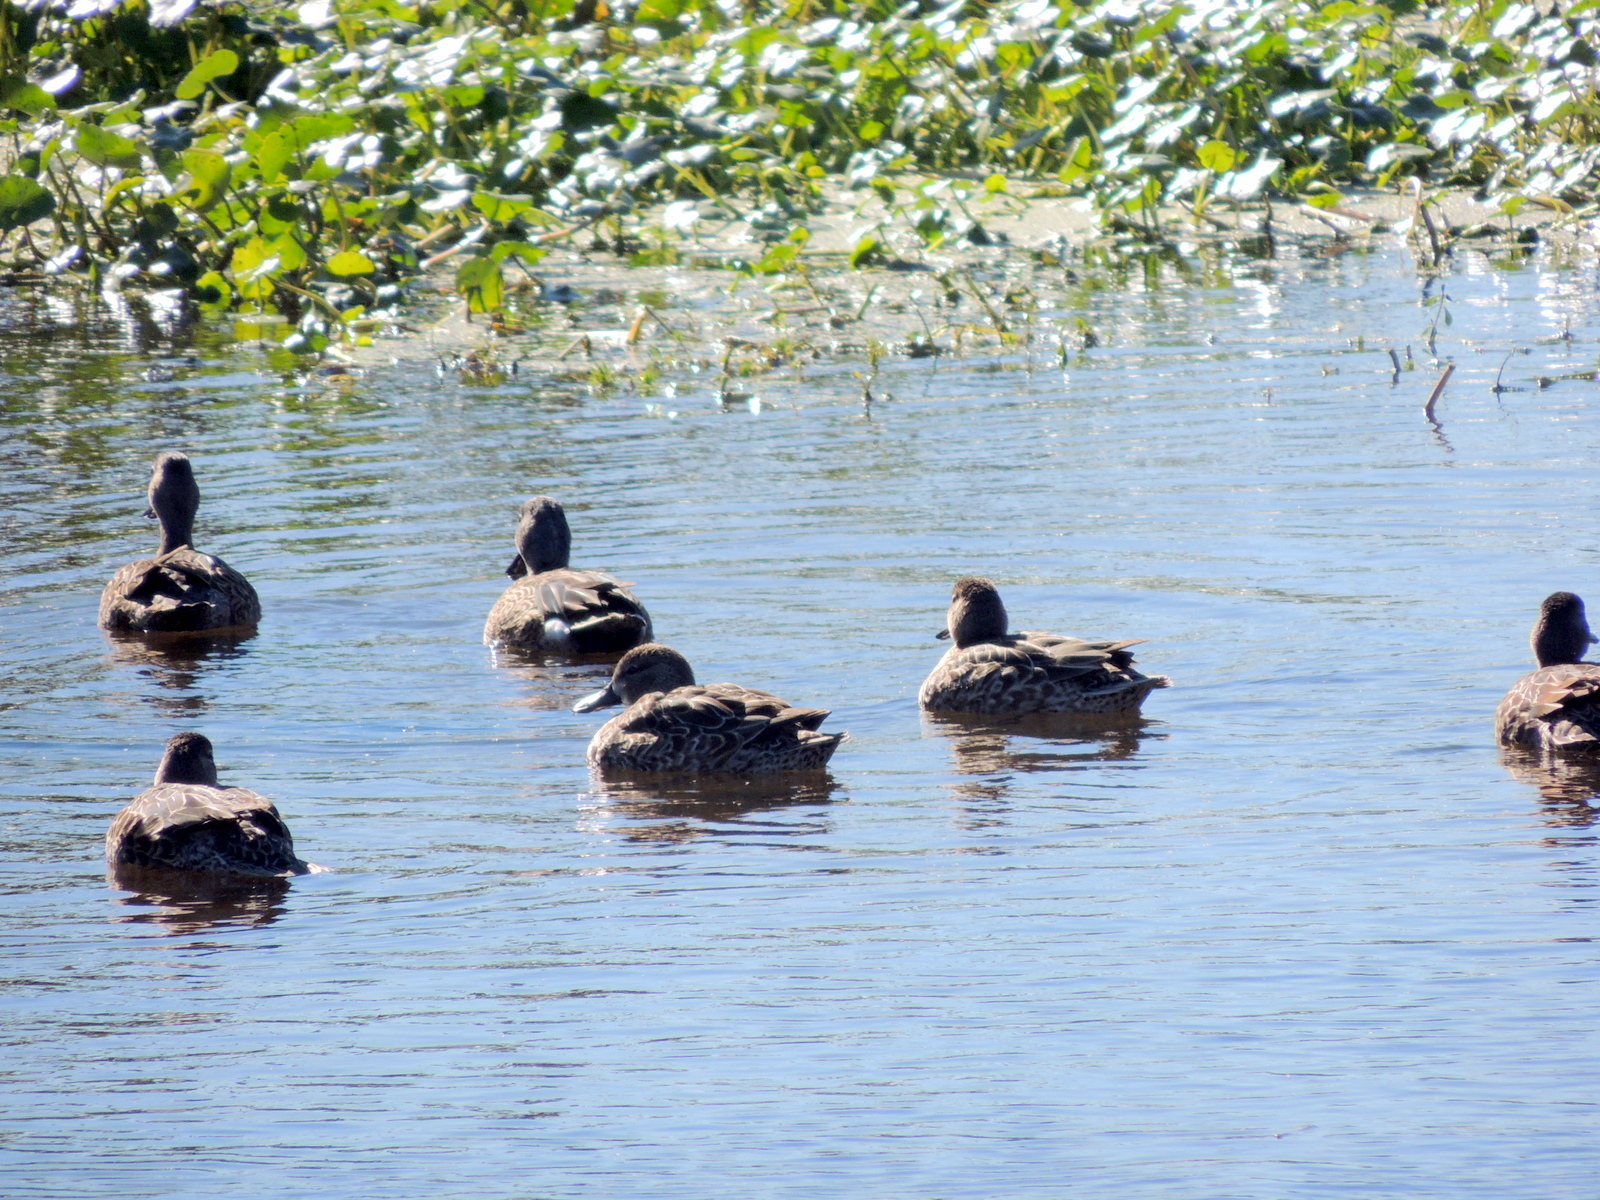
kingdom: Animalia
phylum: Chordata
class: Aves
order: Anseriformes
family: Anatidae
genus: Spatula
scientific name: Spatula discors
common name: Blue-winged teal
